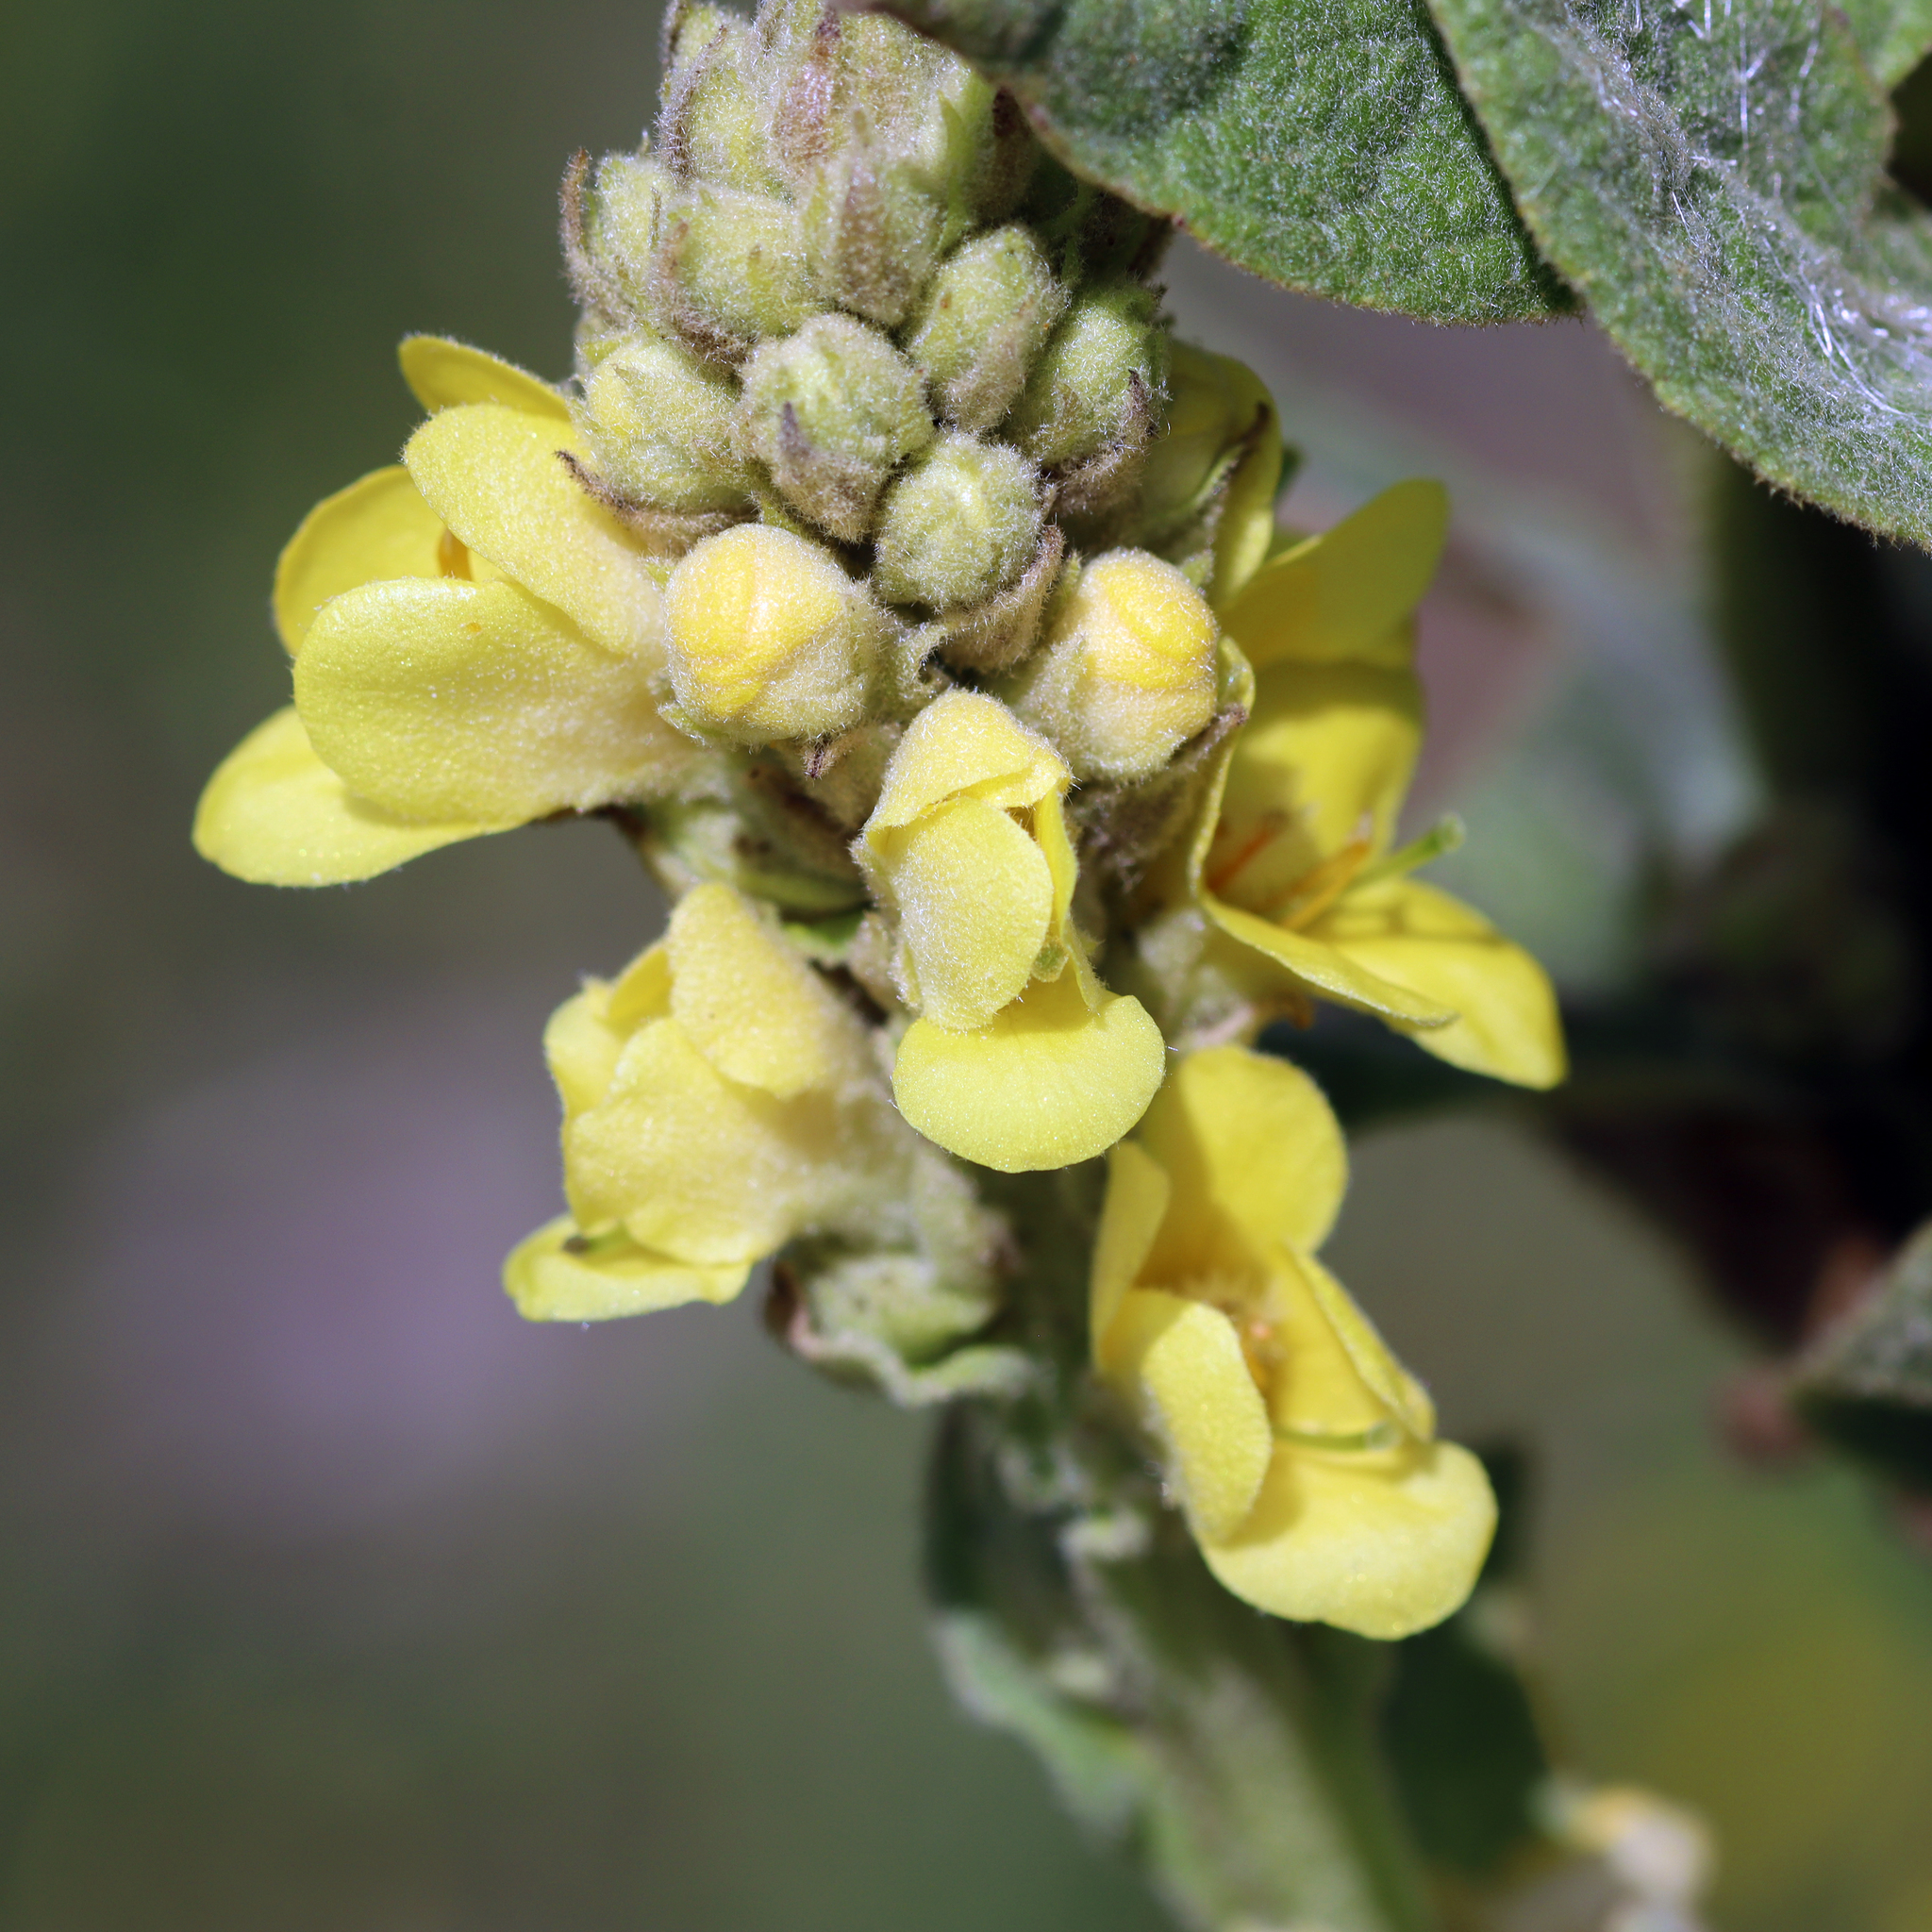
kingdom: Plantae
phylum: Tracheophyta
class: Magnoliopsida
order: Lamiales
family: Scrophulariaceae
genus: Verbascum
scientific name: Verbascum thapsus
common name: Common mullein
